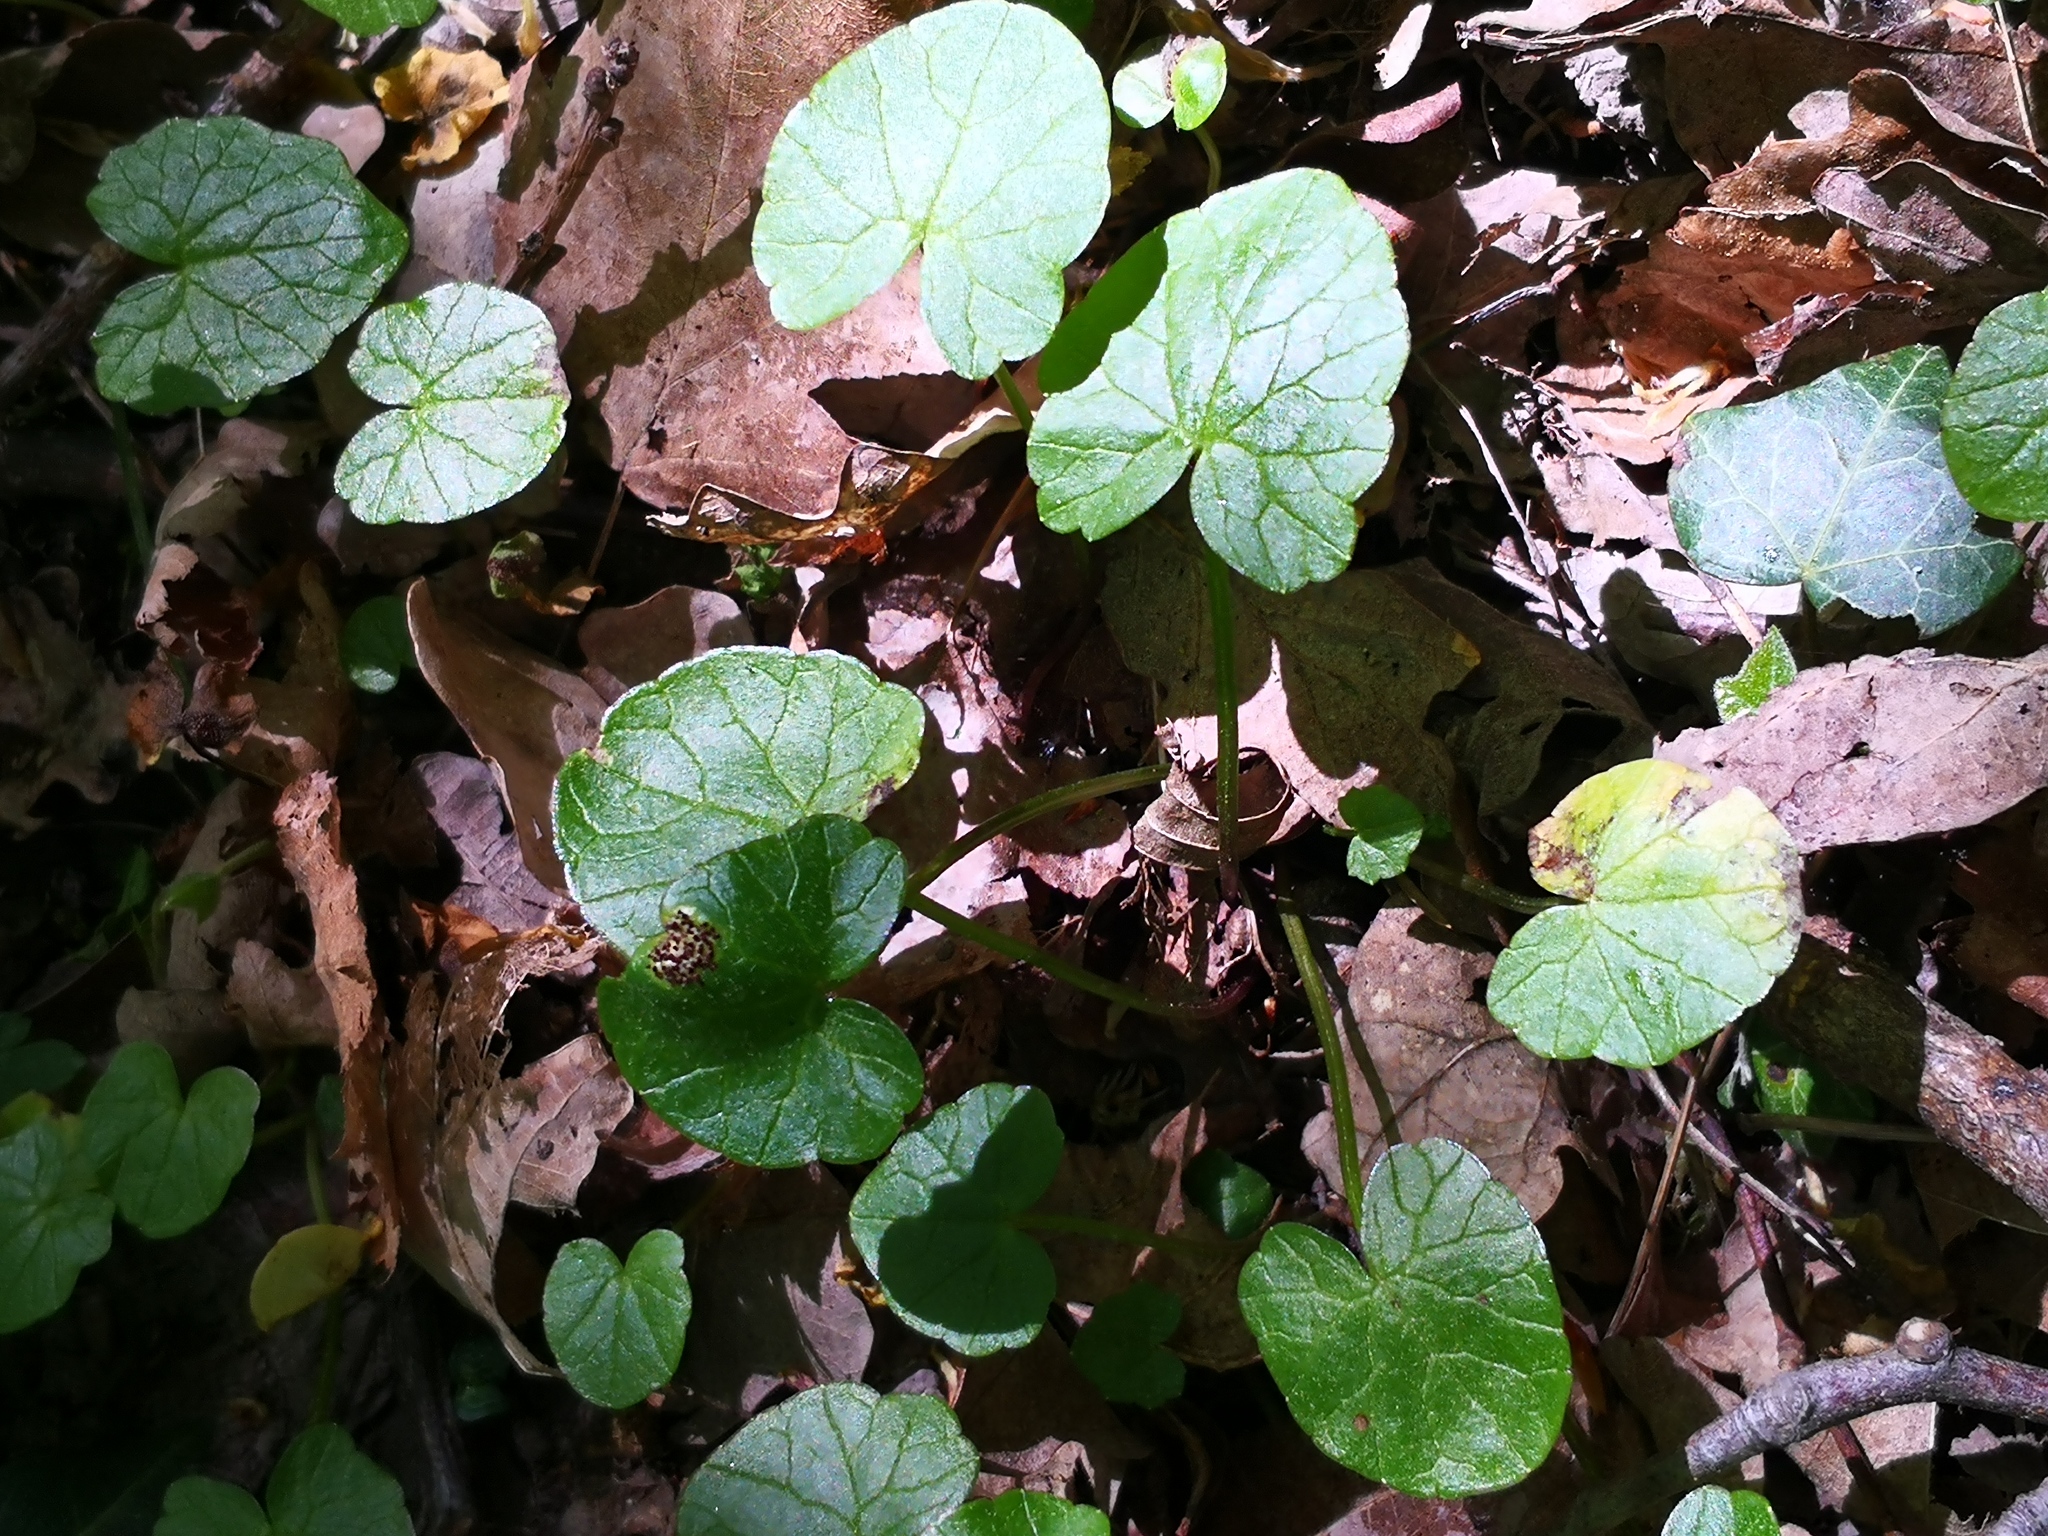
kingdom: Plantae
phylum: Tracheophyta
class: Magnoliopsida
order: Ranunculales
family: Ranunculaceae
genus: Ficaria
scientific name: Ficaria verna
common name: Lesser celandine
